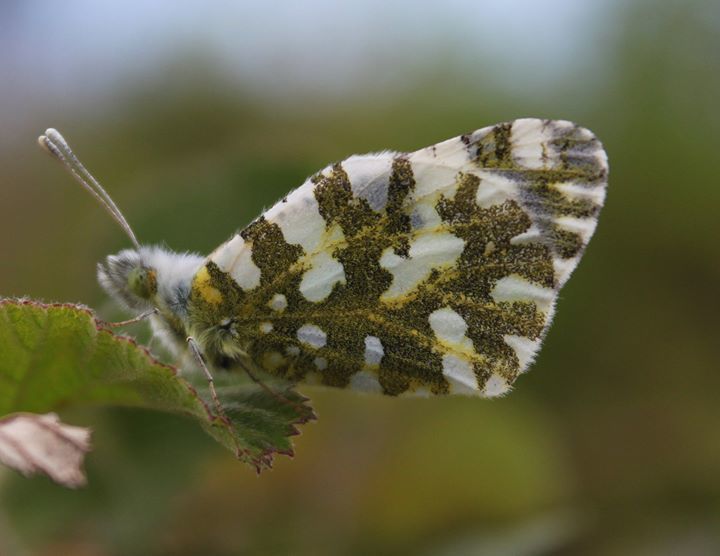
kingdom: Animalia
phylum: Arthropoda
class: Insecta
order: Lepidoptera
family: Pieridae
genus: Euchloe
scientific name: Euchloe ausonia
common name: Eastern dappled white
